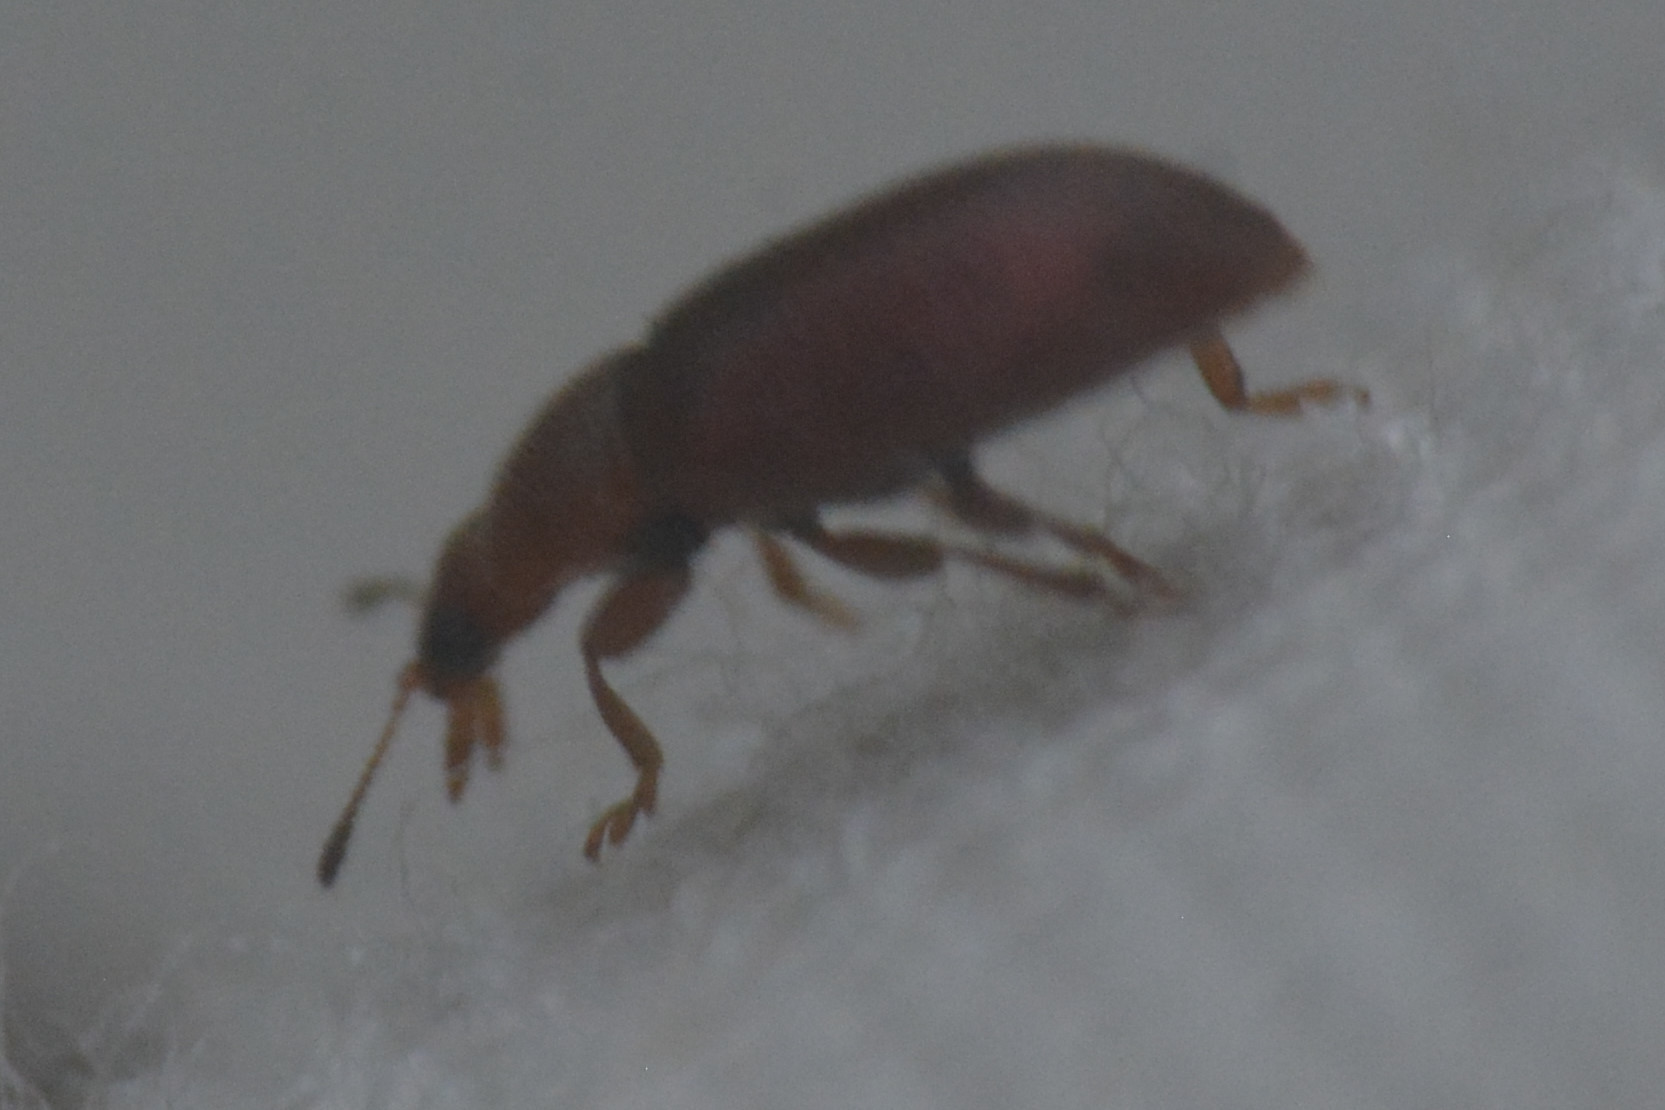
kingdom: Animalia
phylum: Arthropoda
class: Insecta
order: Coleoptera
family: Coccinellidae
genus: Coccidula
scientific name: Coccidula rufa
